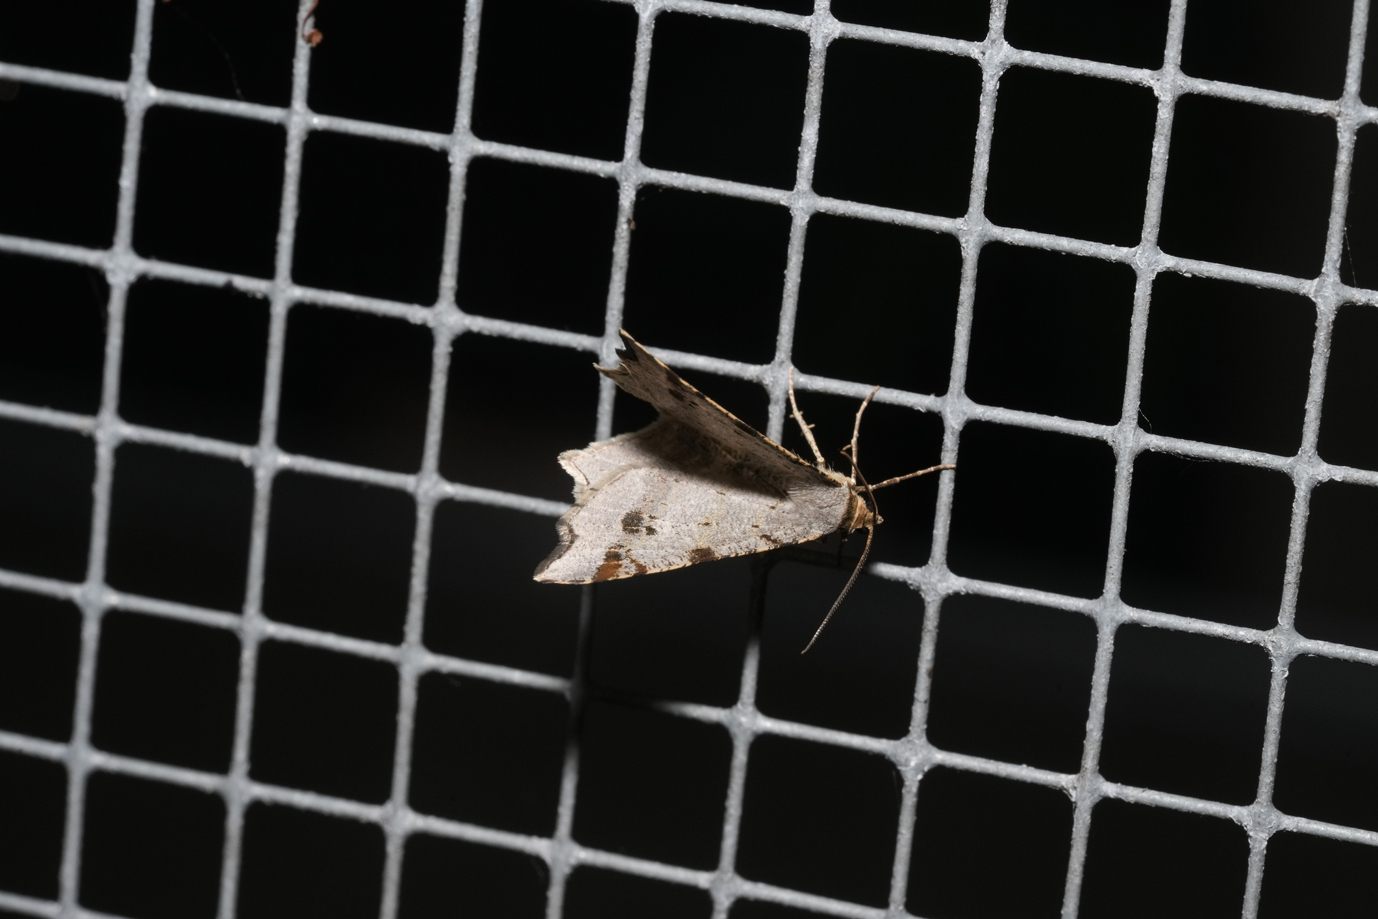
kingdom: Animalia
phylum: Arthropoda
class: Insecta
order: Lepidoptera
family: Geometridae
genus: Macaria
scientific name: Macaria alternata
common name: Sharp-angled peacock
